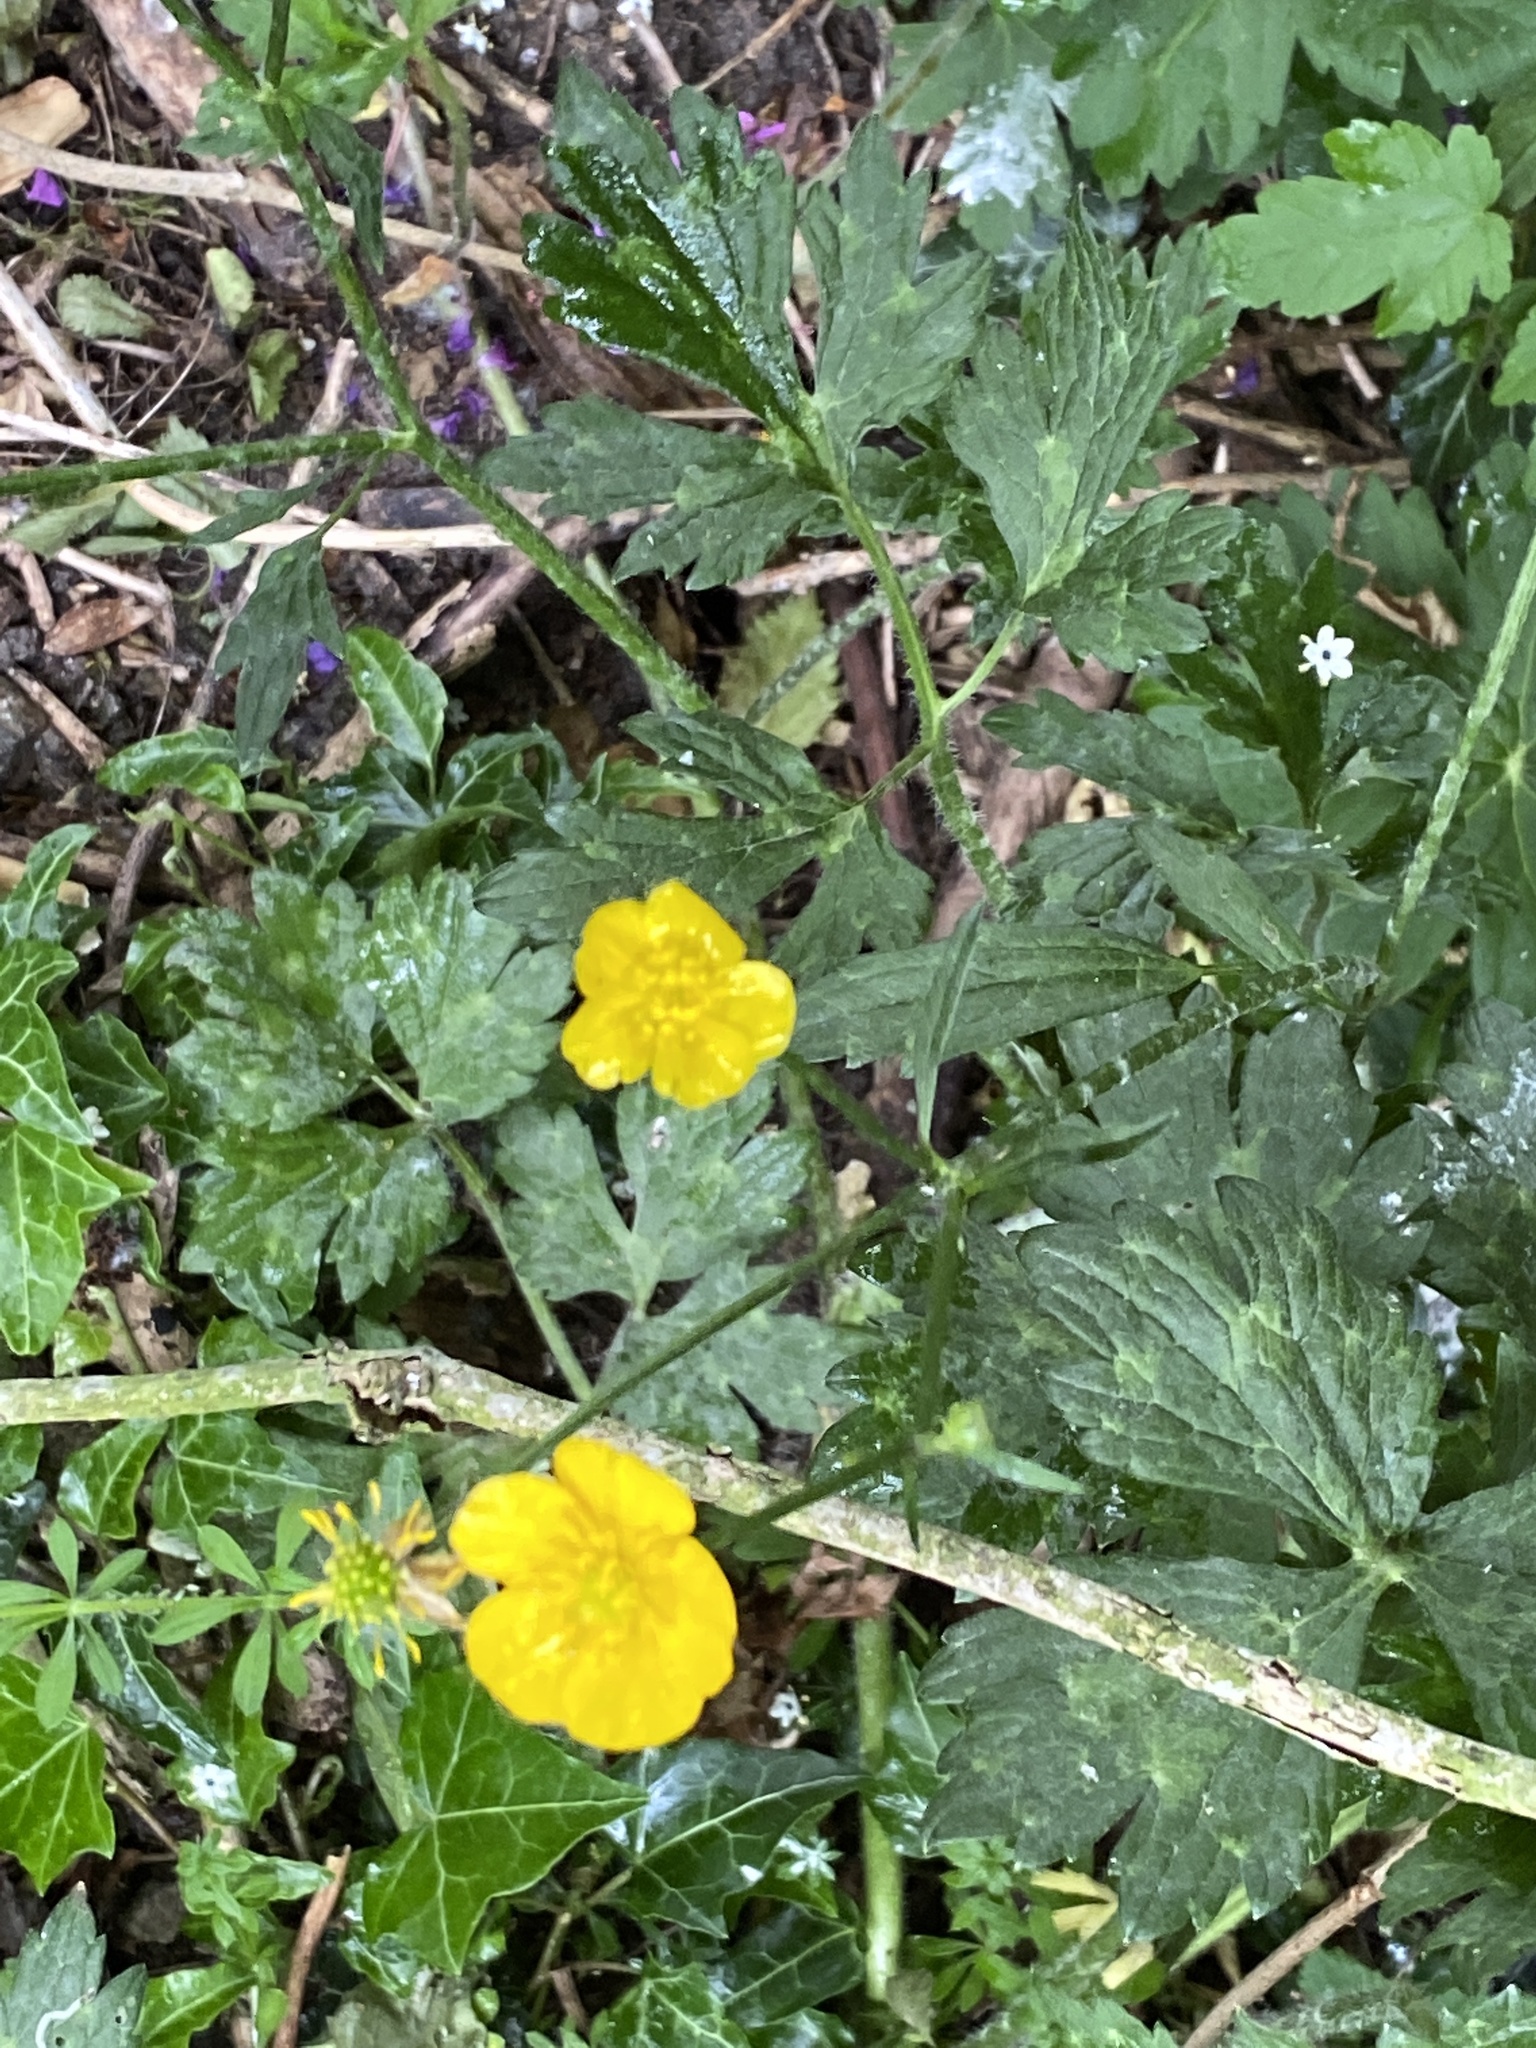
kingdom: Plantae
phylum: Tracheophyta
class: Magnoliopsida
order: Ranunculales
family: Ranunculaceae
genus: Ranunculus
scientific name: Ranunculus repens
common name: Creeping buttercup
